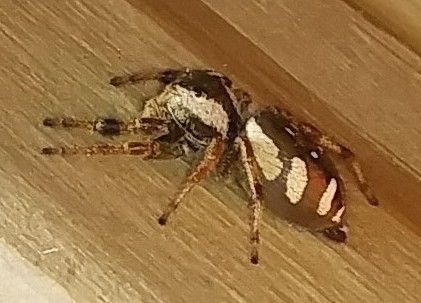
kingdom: Animalia
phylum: Arthropoda
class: Arachnida
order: Araneae
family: Salticidae
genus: Paraphidippus
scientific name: Paraphidippus aurantius
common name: Jumping spiders
